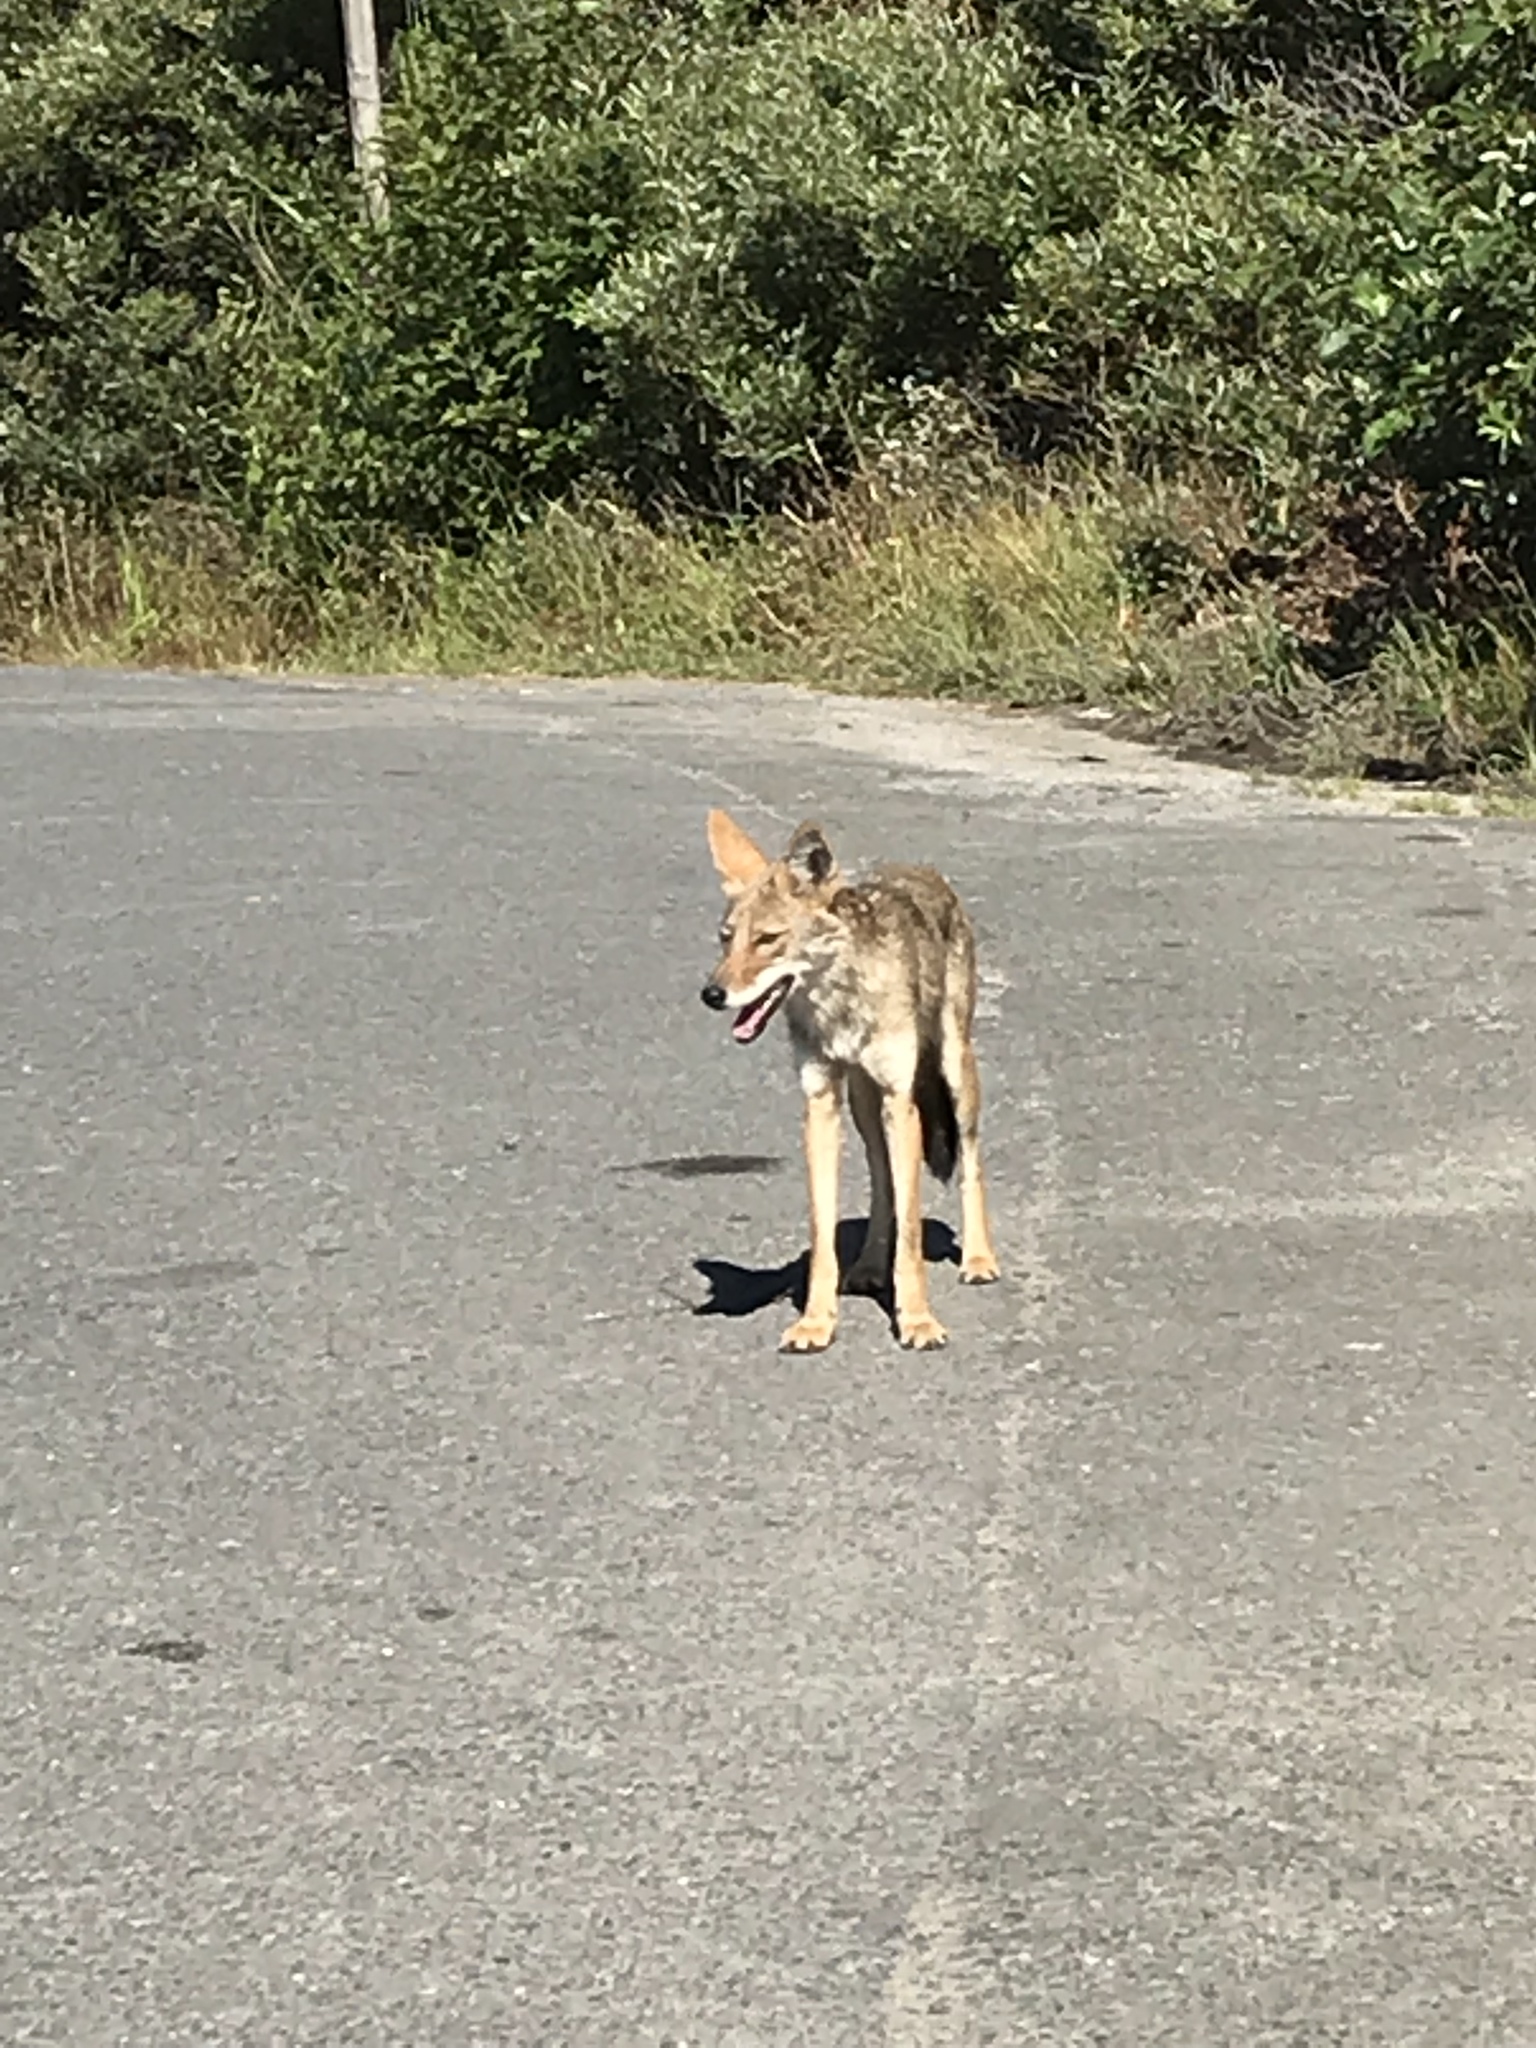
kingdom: Animalia
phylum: Chordata
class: Mammalia
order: Carnivora
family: Canidae
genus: Canis
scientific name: Canis latrans
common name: Coyote
